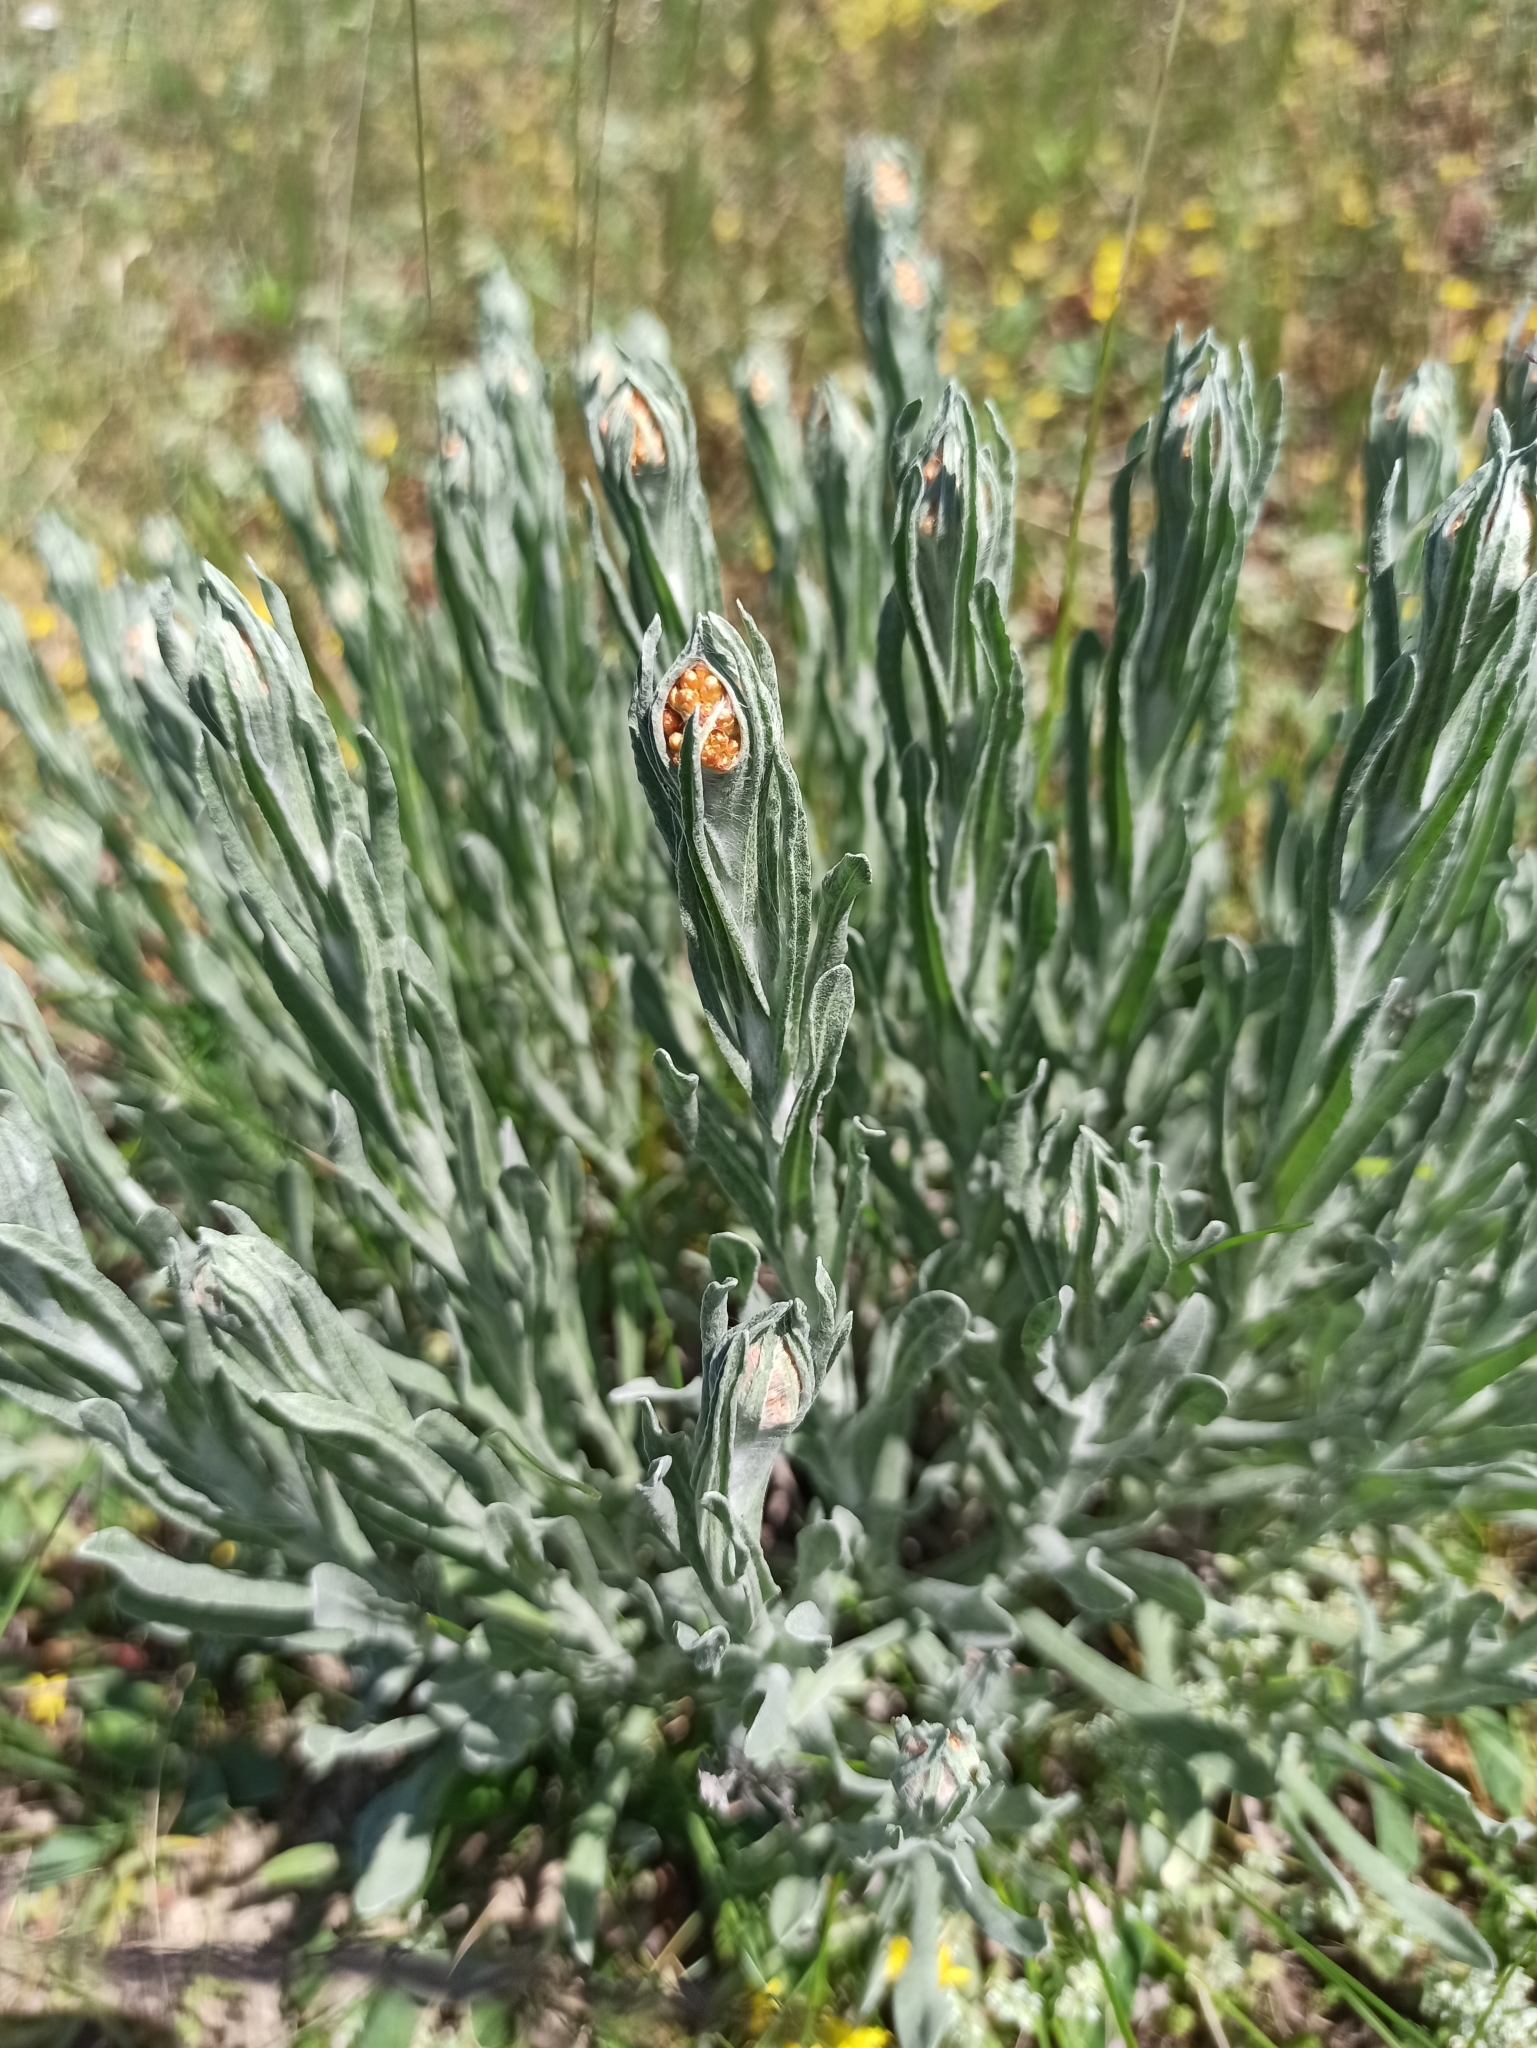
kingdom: Plantae
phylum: Tracheophyta
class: Magnoliopsida
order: Asterales
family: Asteraceae
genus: Helichrysum
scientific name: Helichrysum arenarium
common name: Strawflower
